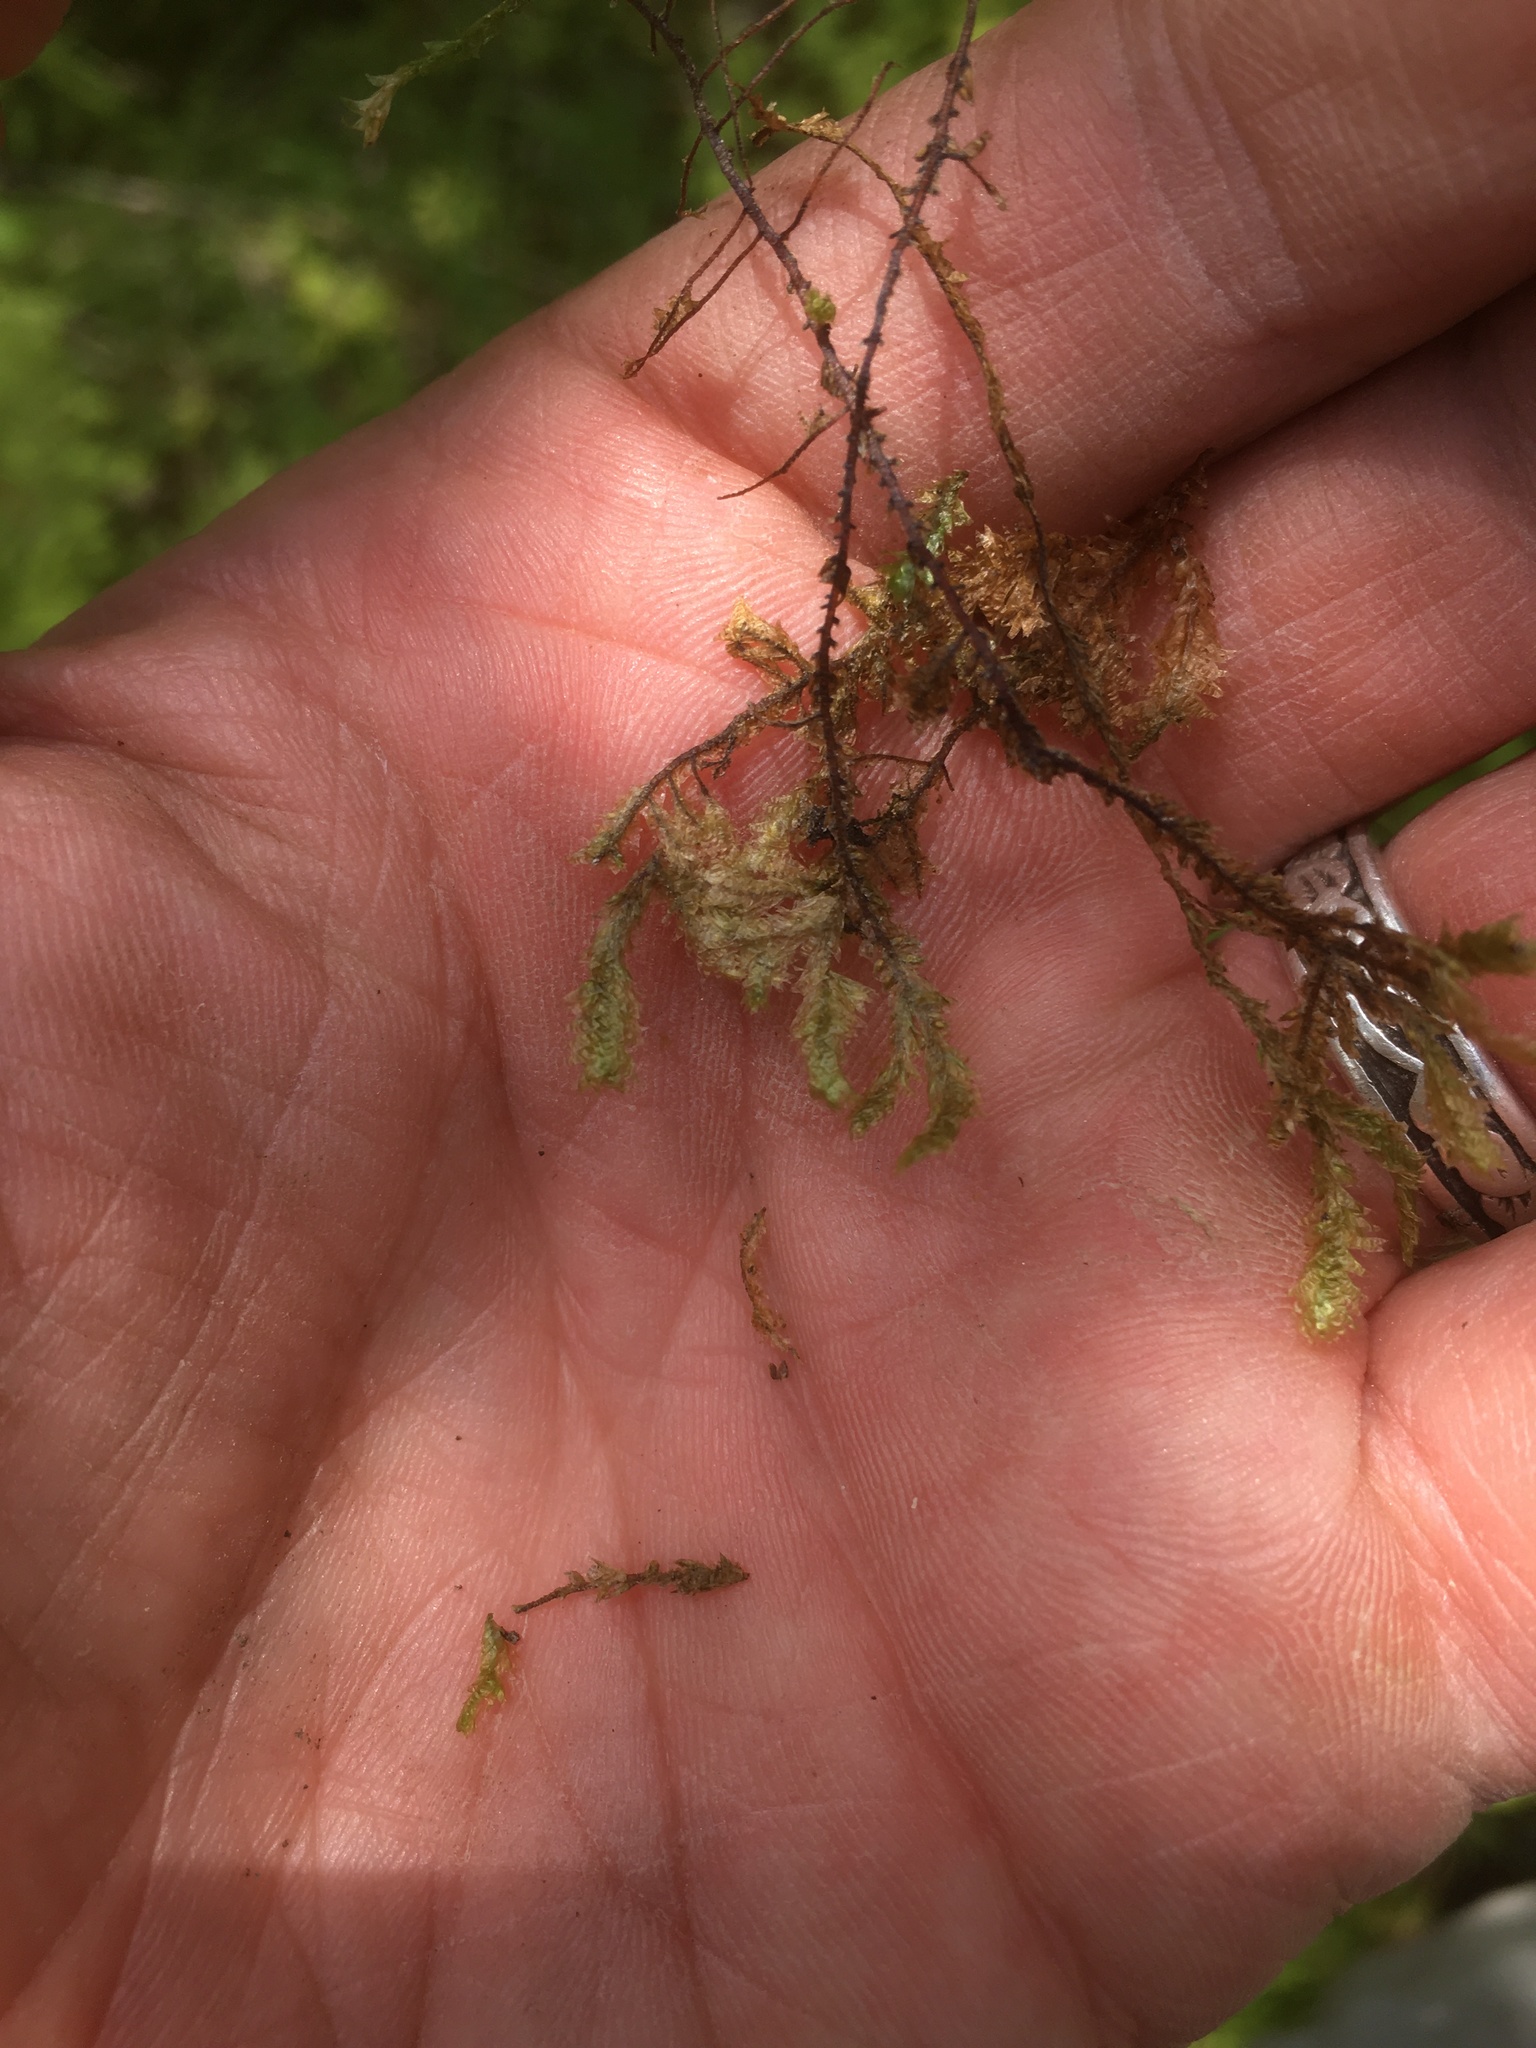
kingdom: Plantae
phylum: Bryophyta
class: Bryopsida
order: Hypnales
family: Neckeraceae
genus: Neckera
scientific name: Neckera pennata
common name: Feathery neckera
